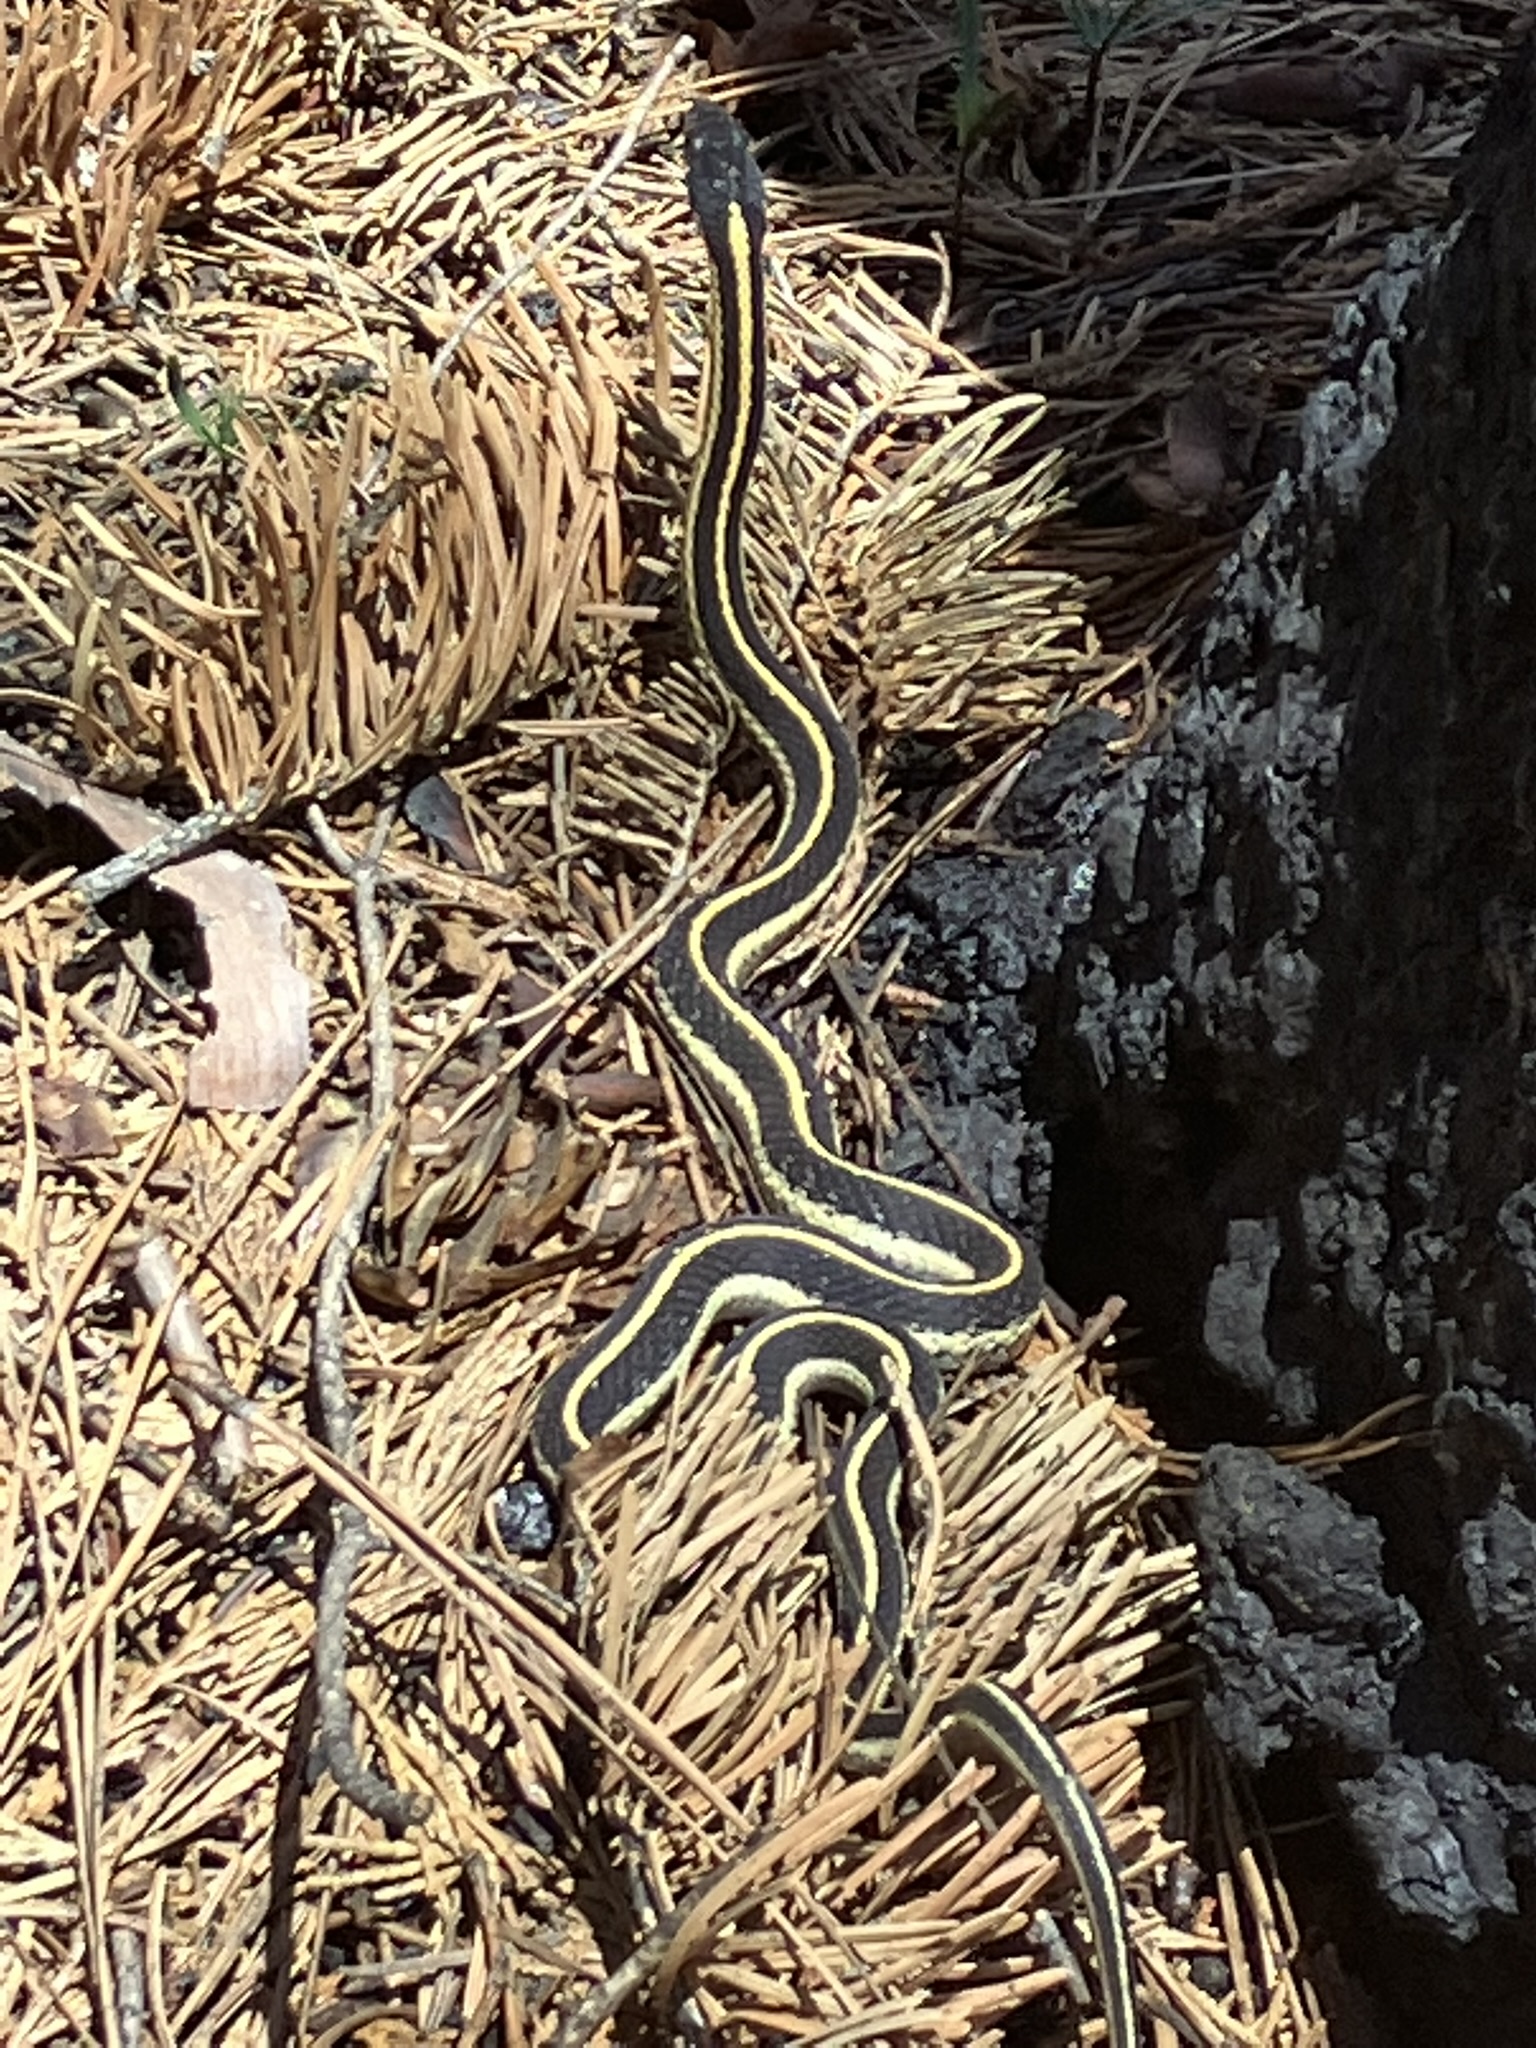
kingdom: Animalia
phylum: Chordata
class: Squamata
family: Colubridae
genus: Thamnophis
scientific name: Thamnophis elegans
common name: Western terrestrial garter snake
